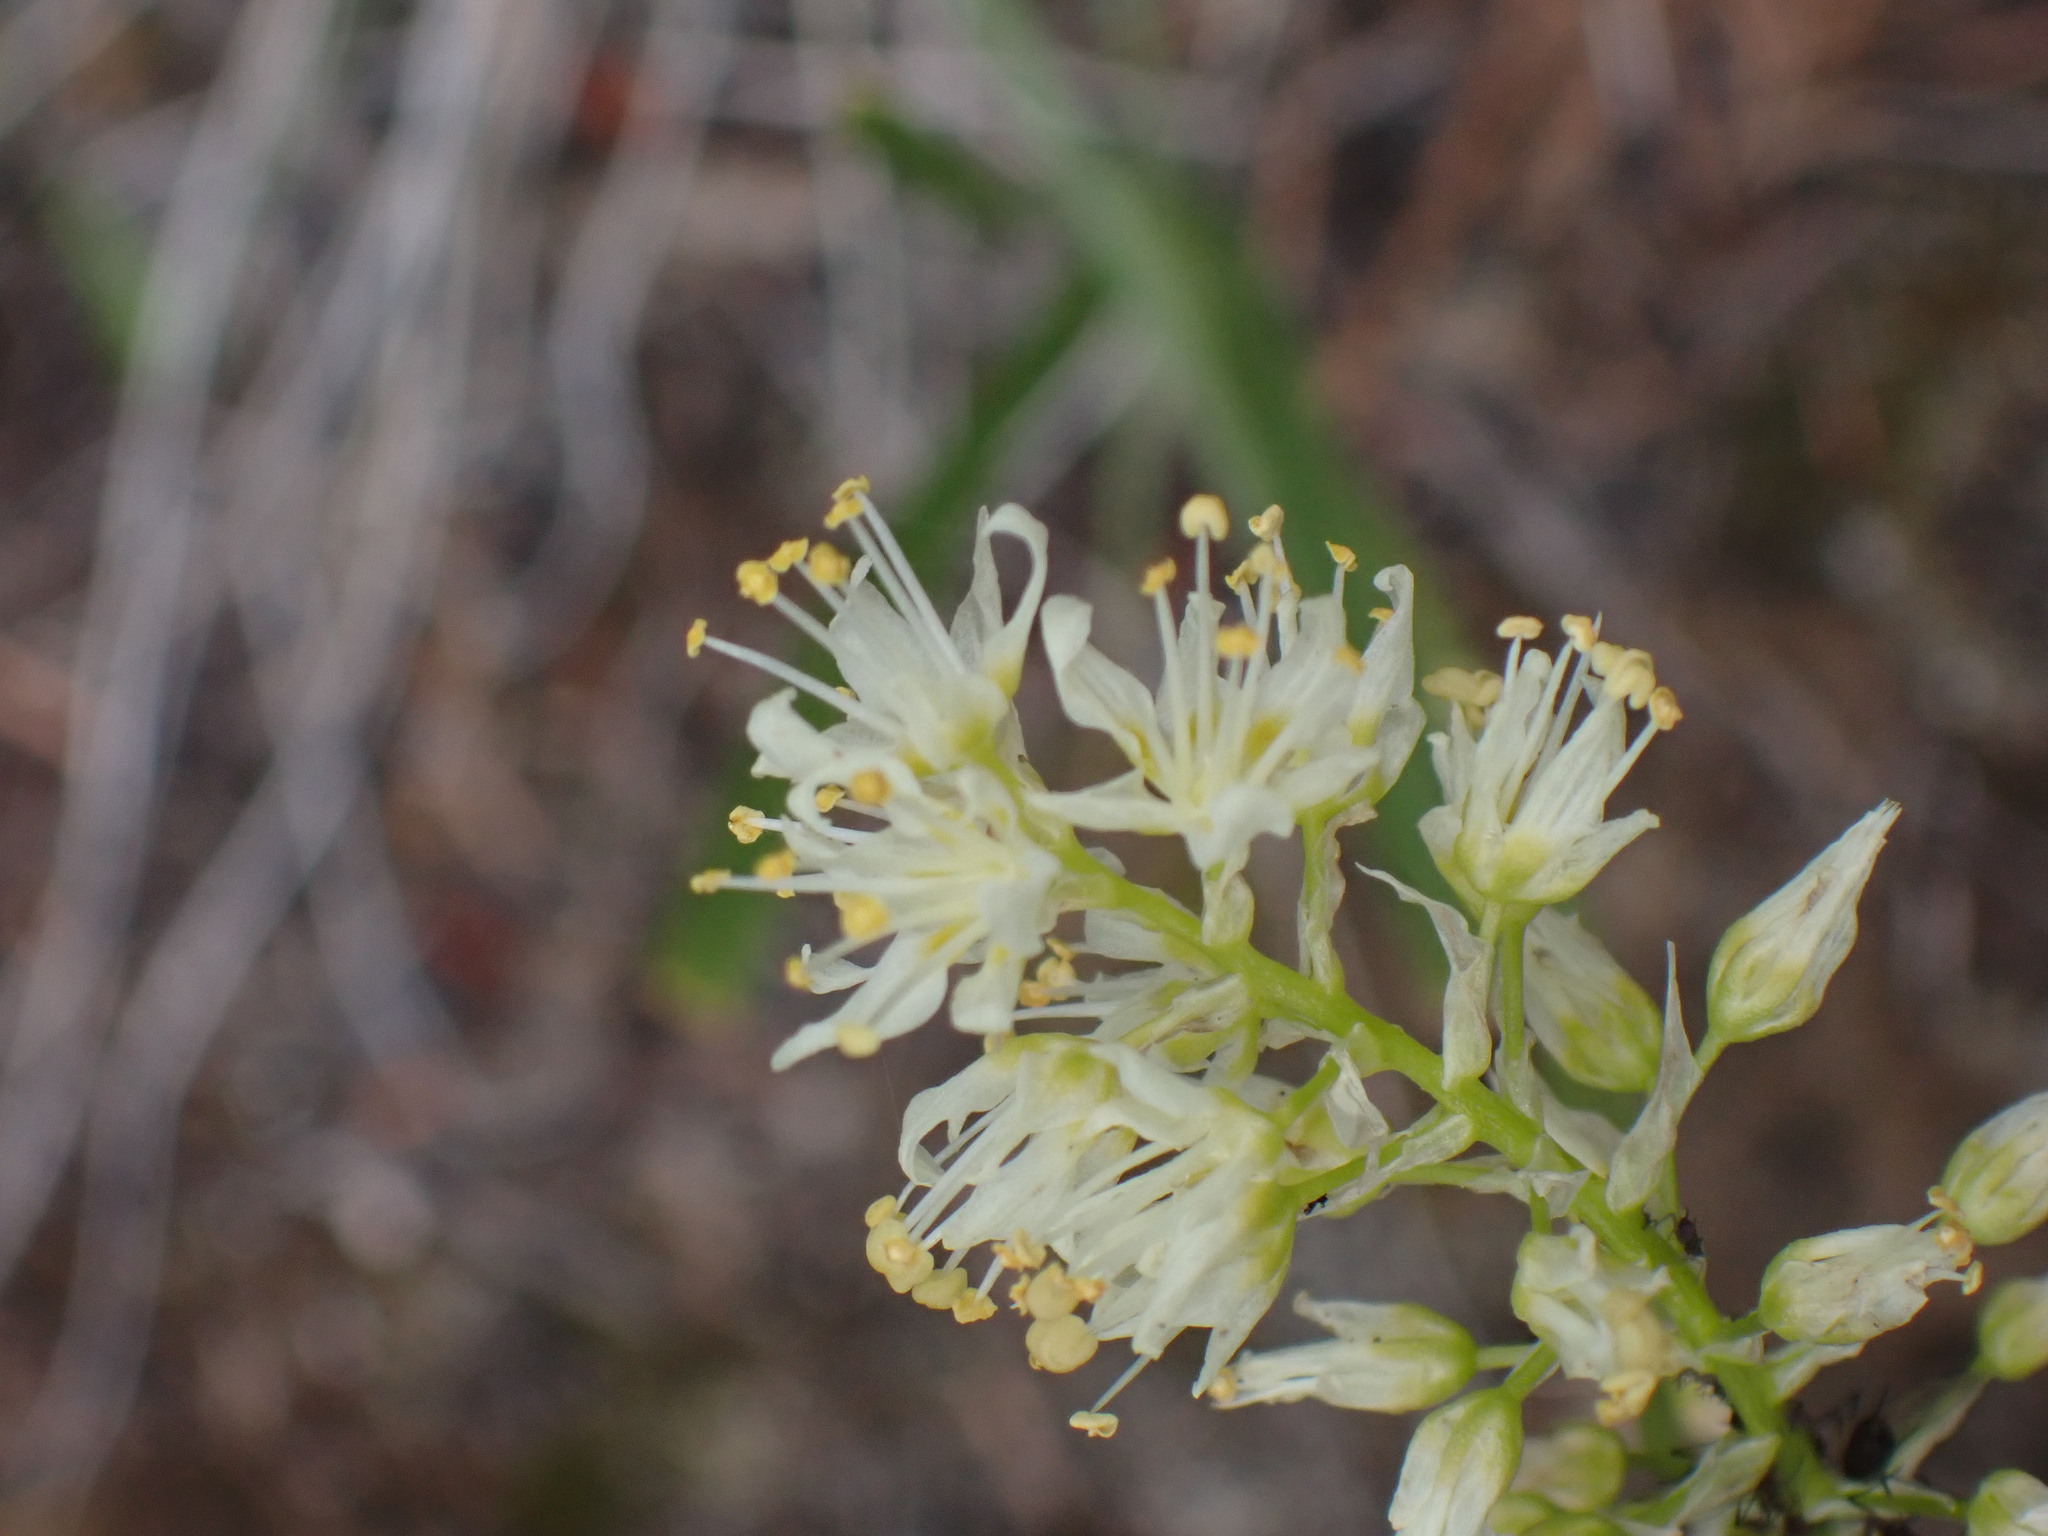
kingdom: Plantae
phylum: Tracheophyta
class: Liliopsida
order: Liliales
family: Melanthiaceae
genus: Toxicoscordion
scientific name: Toxicoscordion venenosum
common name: Meadow death camas
